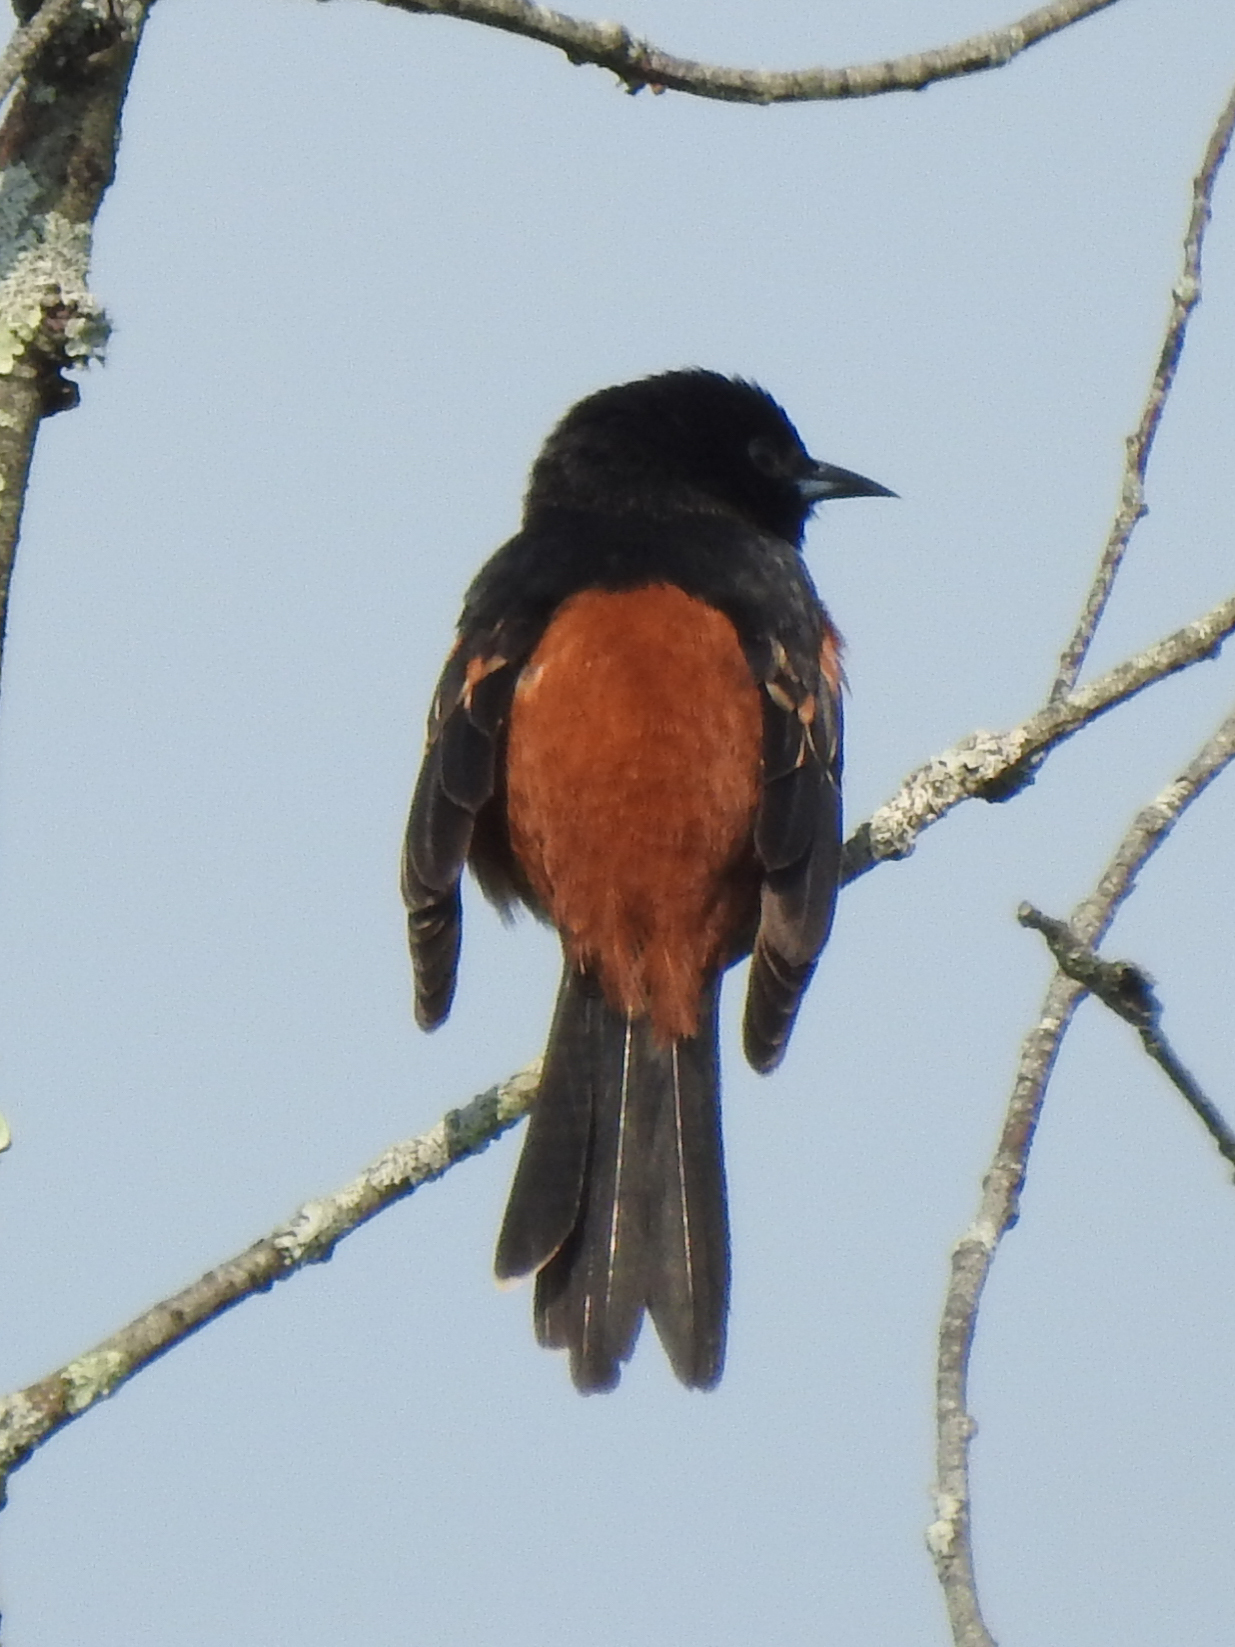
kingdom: Animalia
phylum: Chordata
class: Aves
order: Passeriformes
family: Icteridae
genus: Icterus
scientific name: Icterus spurius
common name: Orchard oriole
